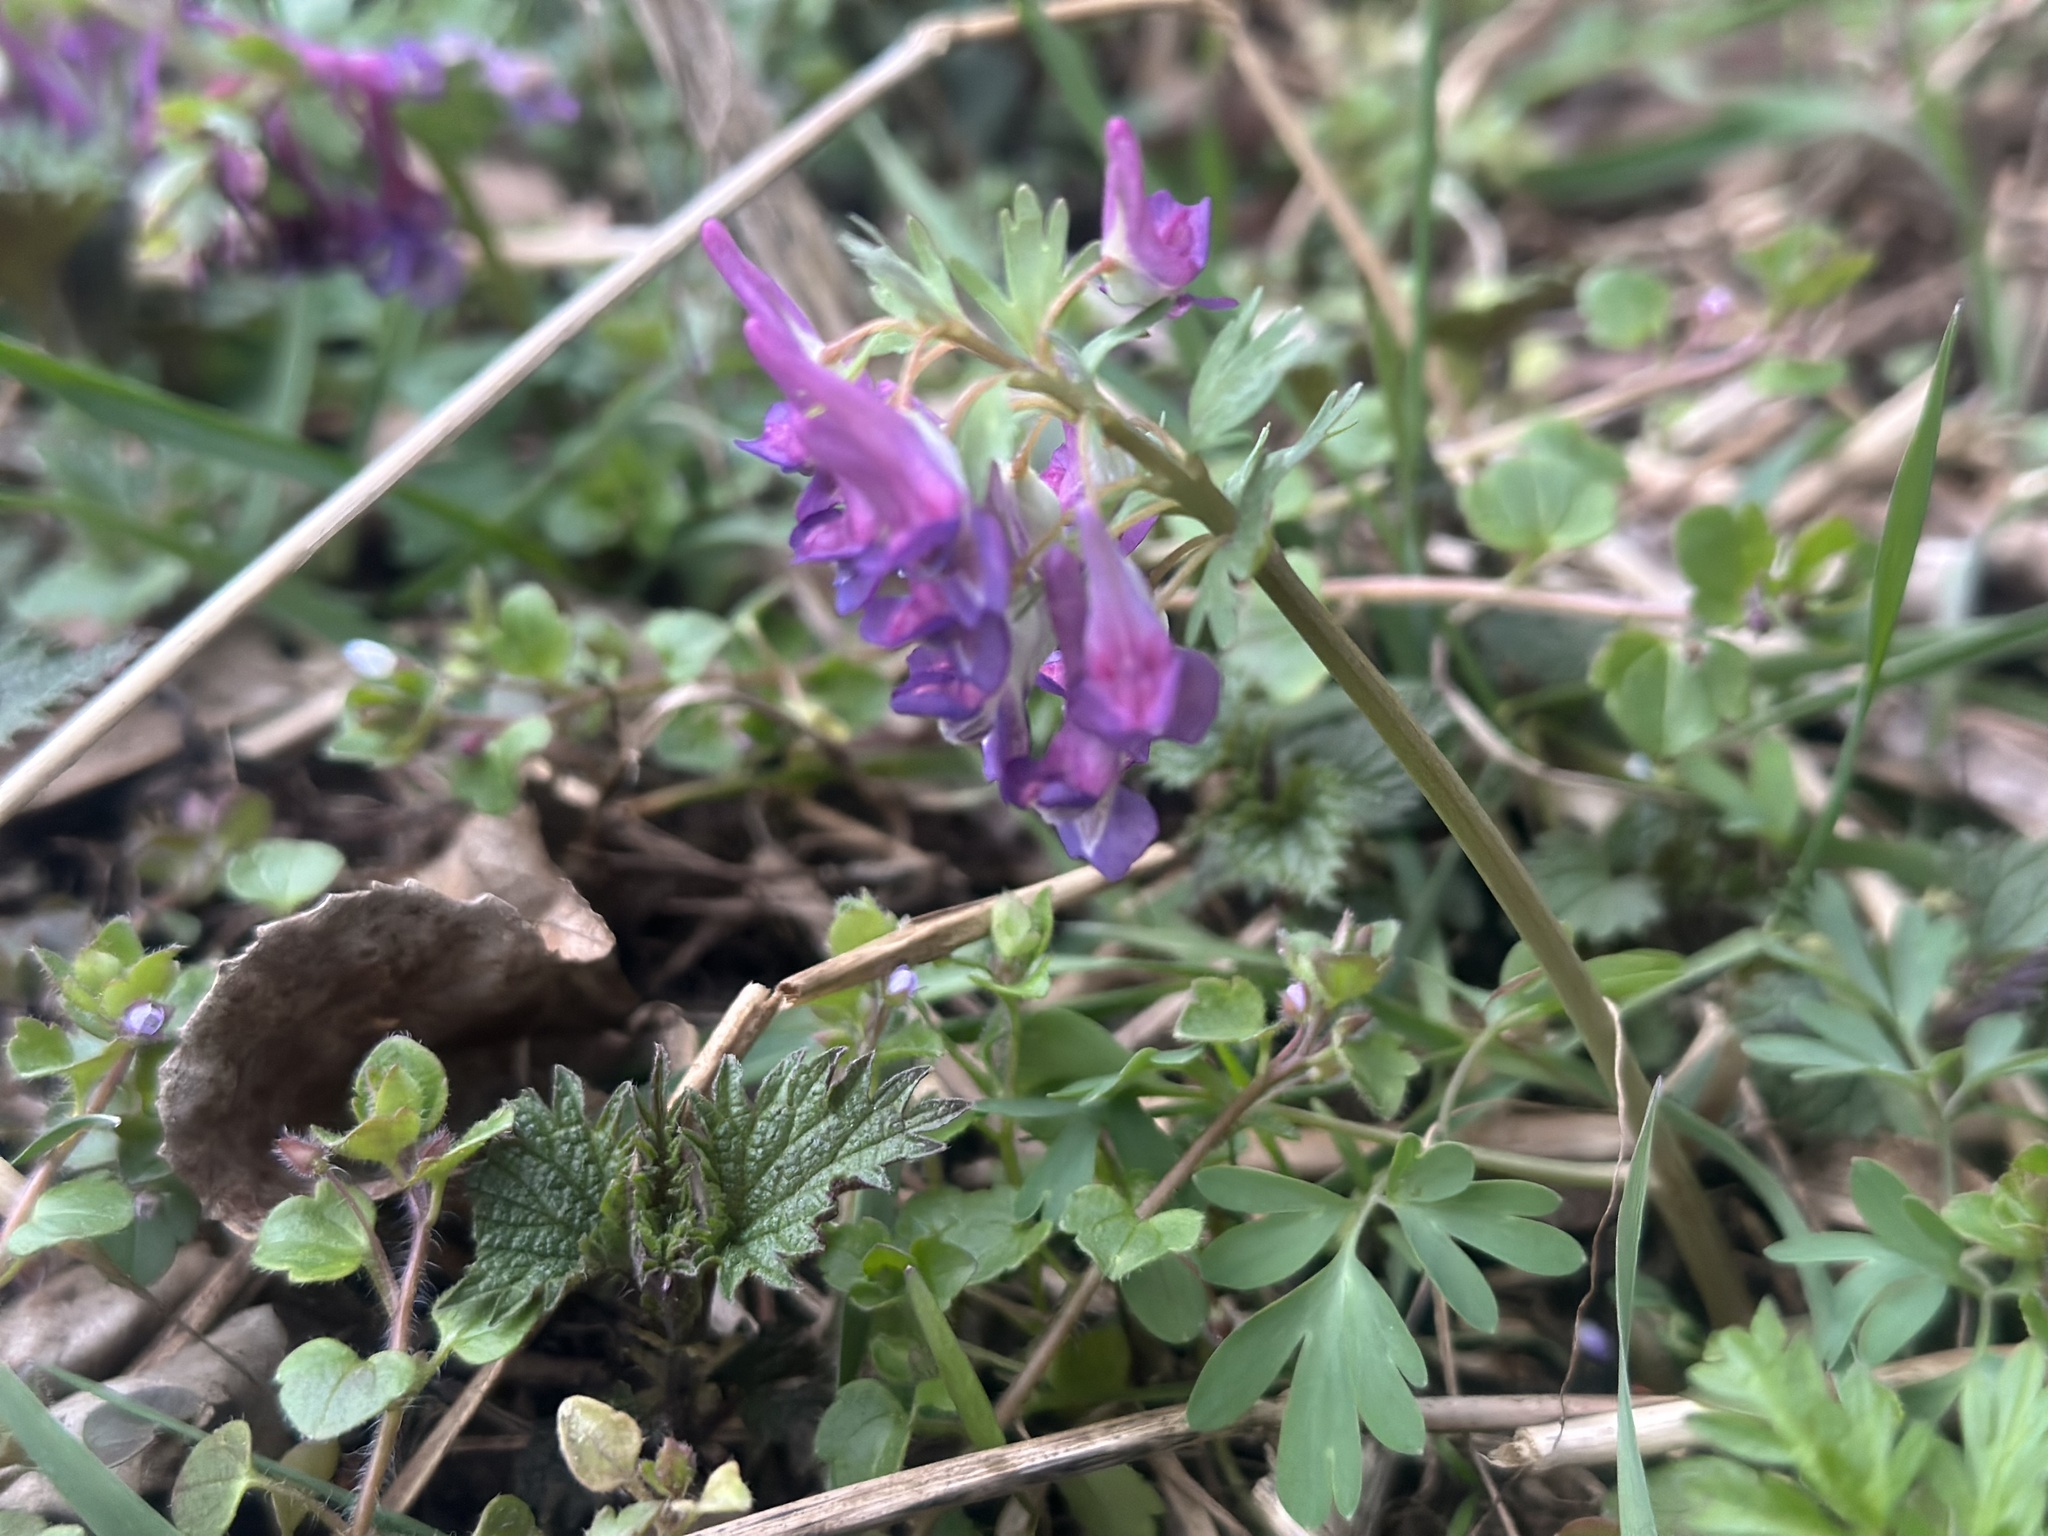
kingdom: Plantae
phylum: Tracheophyta
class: Magnoliopsida
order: Ranunculales
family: Papaveraceae
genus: Corydalis
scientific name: Corydalis solida
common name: Bird-in-a-bush
